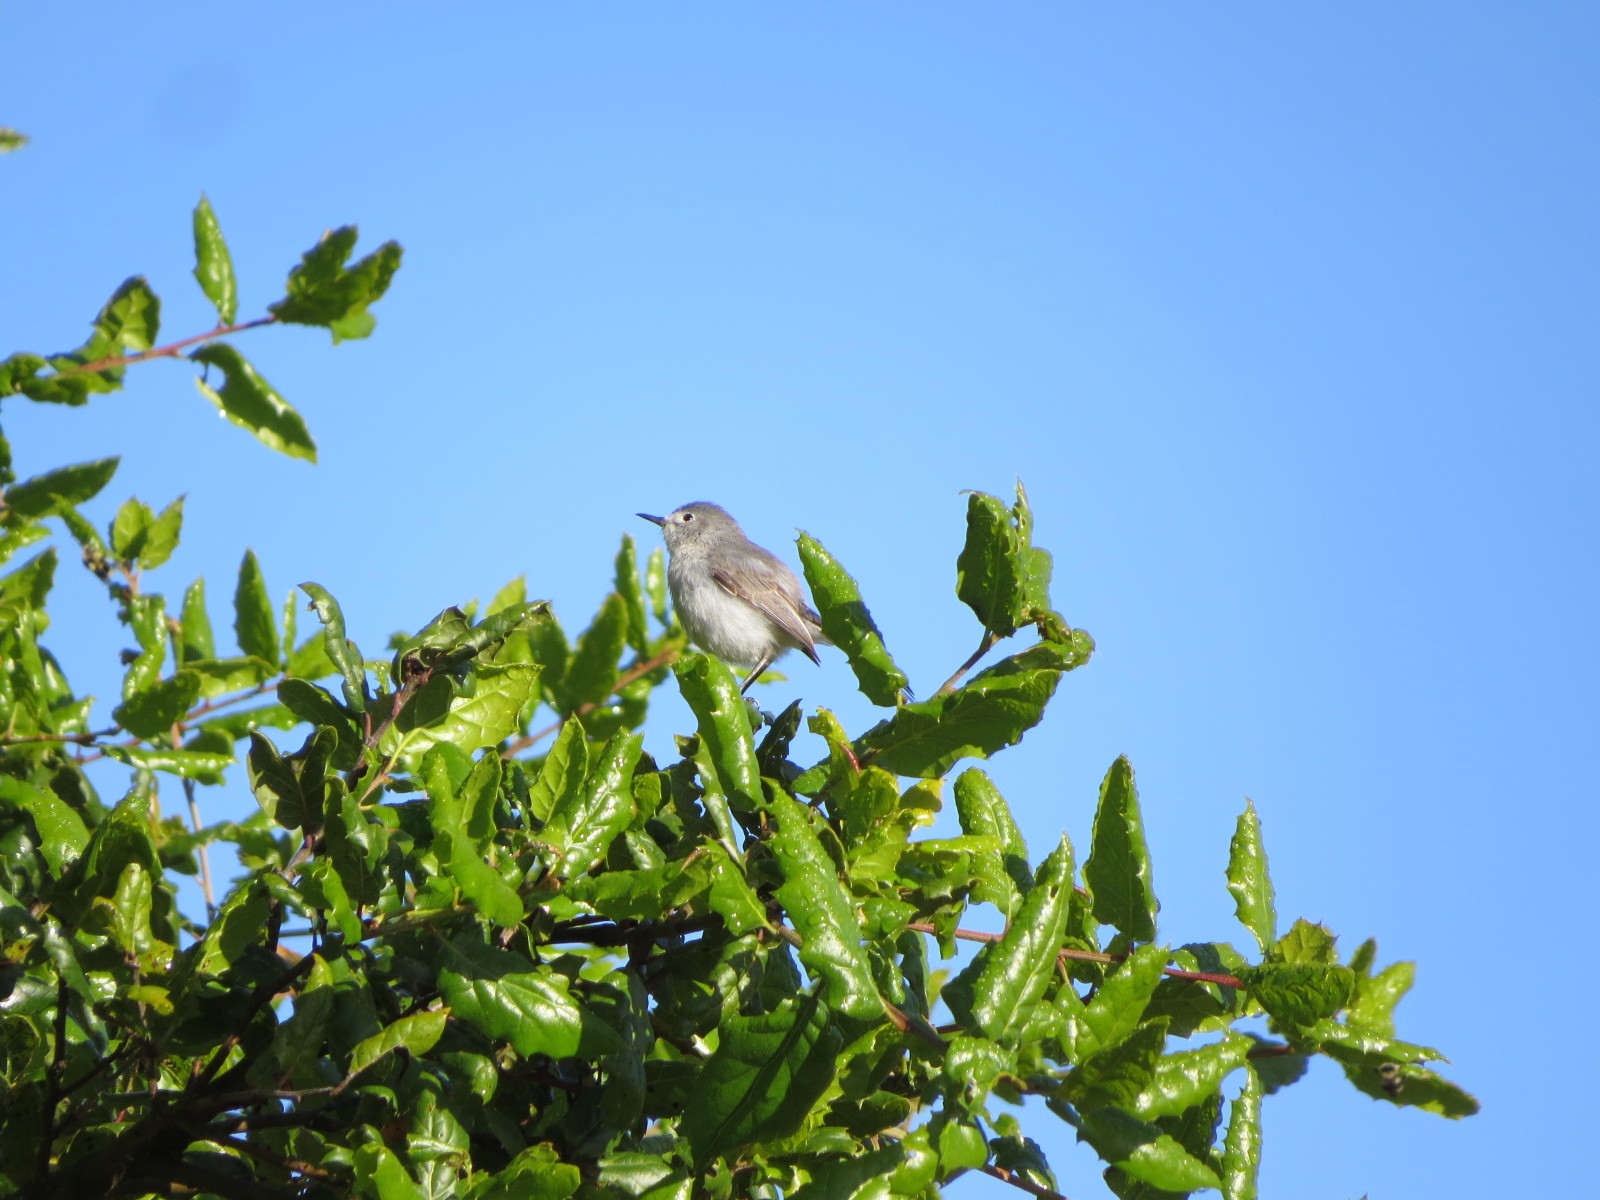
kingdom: Animalia
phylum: Chordata
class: Aves
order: Passeriformes
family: Polioptilidae
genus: Polioptila
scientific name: Polioptila caerulea
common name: Blue-gray gnatcatcher
